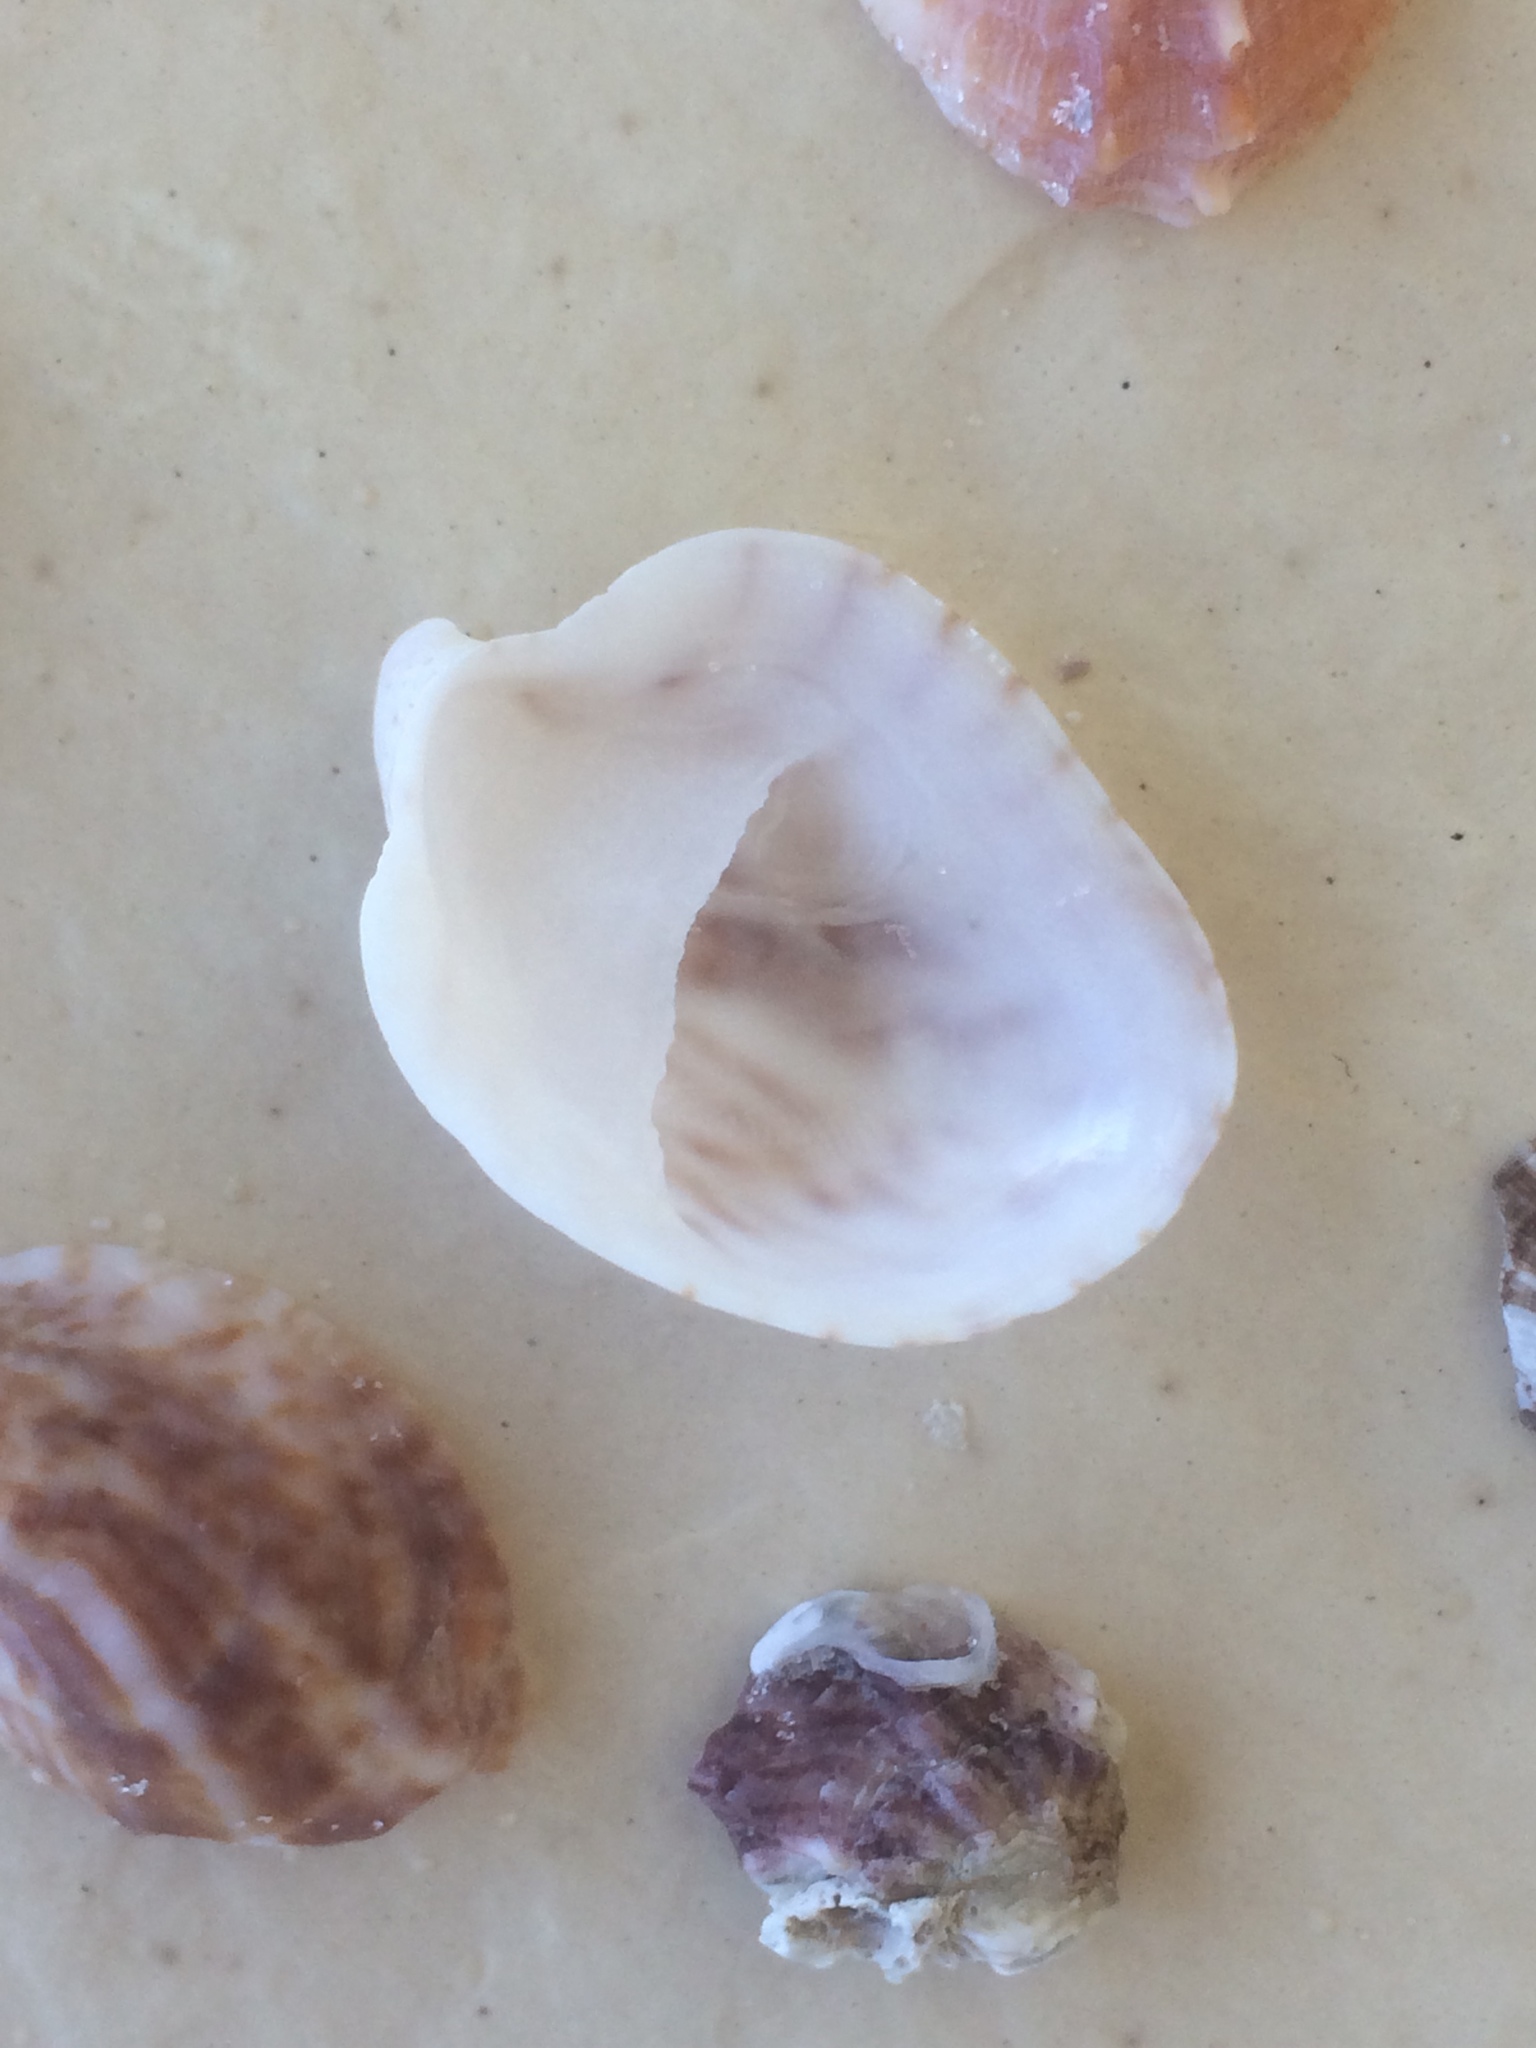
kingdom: Animalia
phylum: Mollusca
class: Gastropoda
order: Littorinimorpha
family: Calyptraeidae
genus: Crepidula
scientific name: Crepidula maculosa
